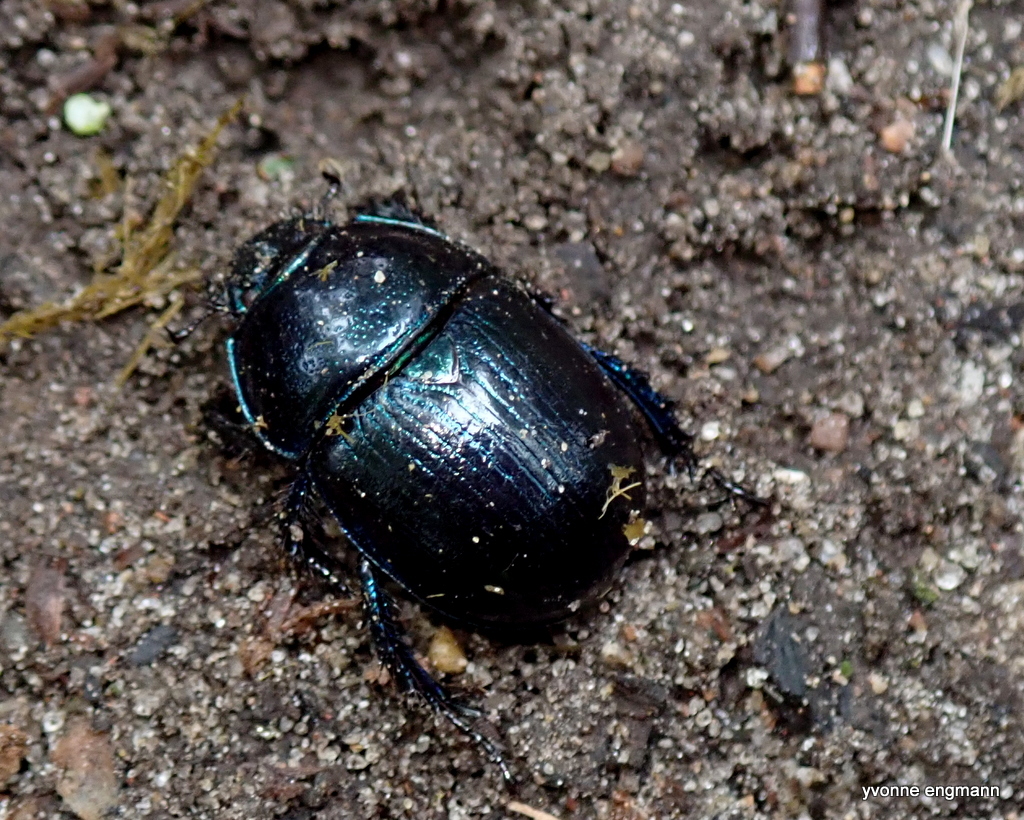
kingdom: Animalia
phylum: Arthropoda
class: Insecta
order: Coleoptera
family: Geotrupidae
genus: Anoplotrupes
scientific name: Anoplotrupes stercorosus
